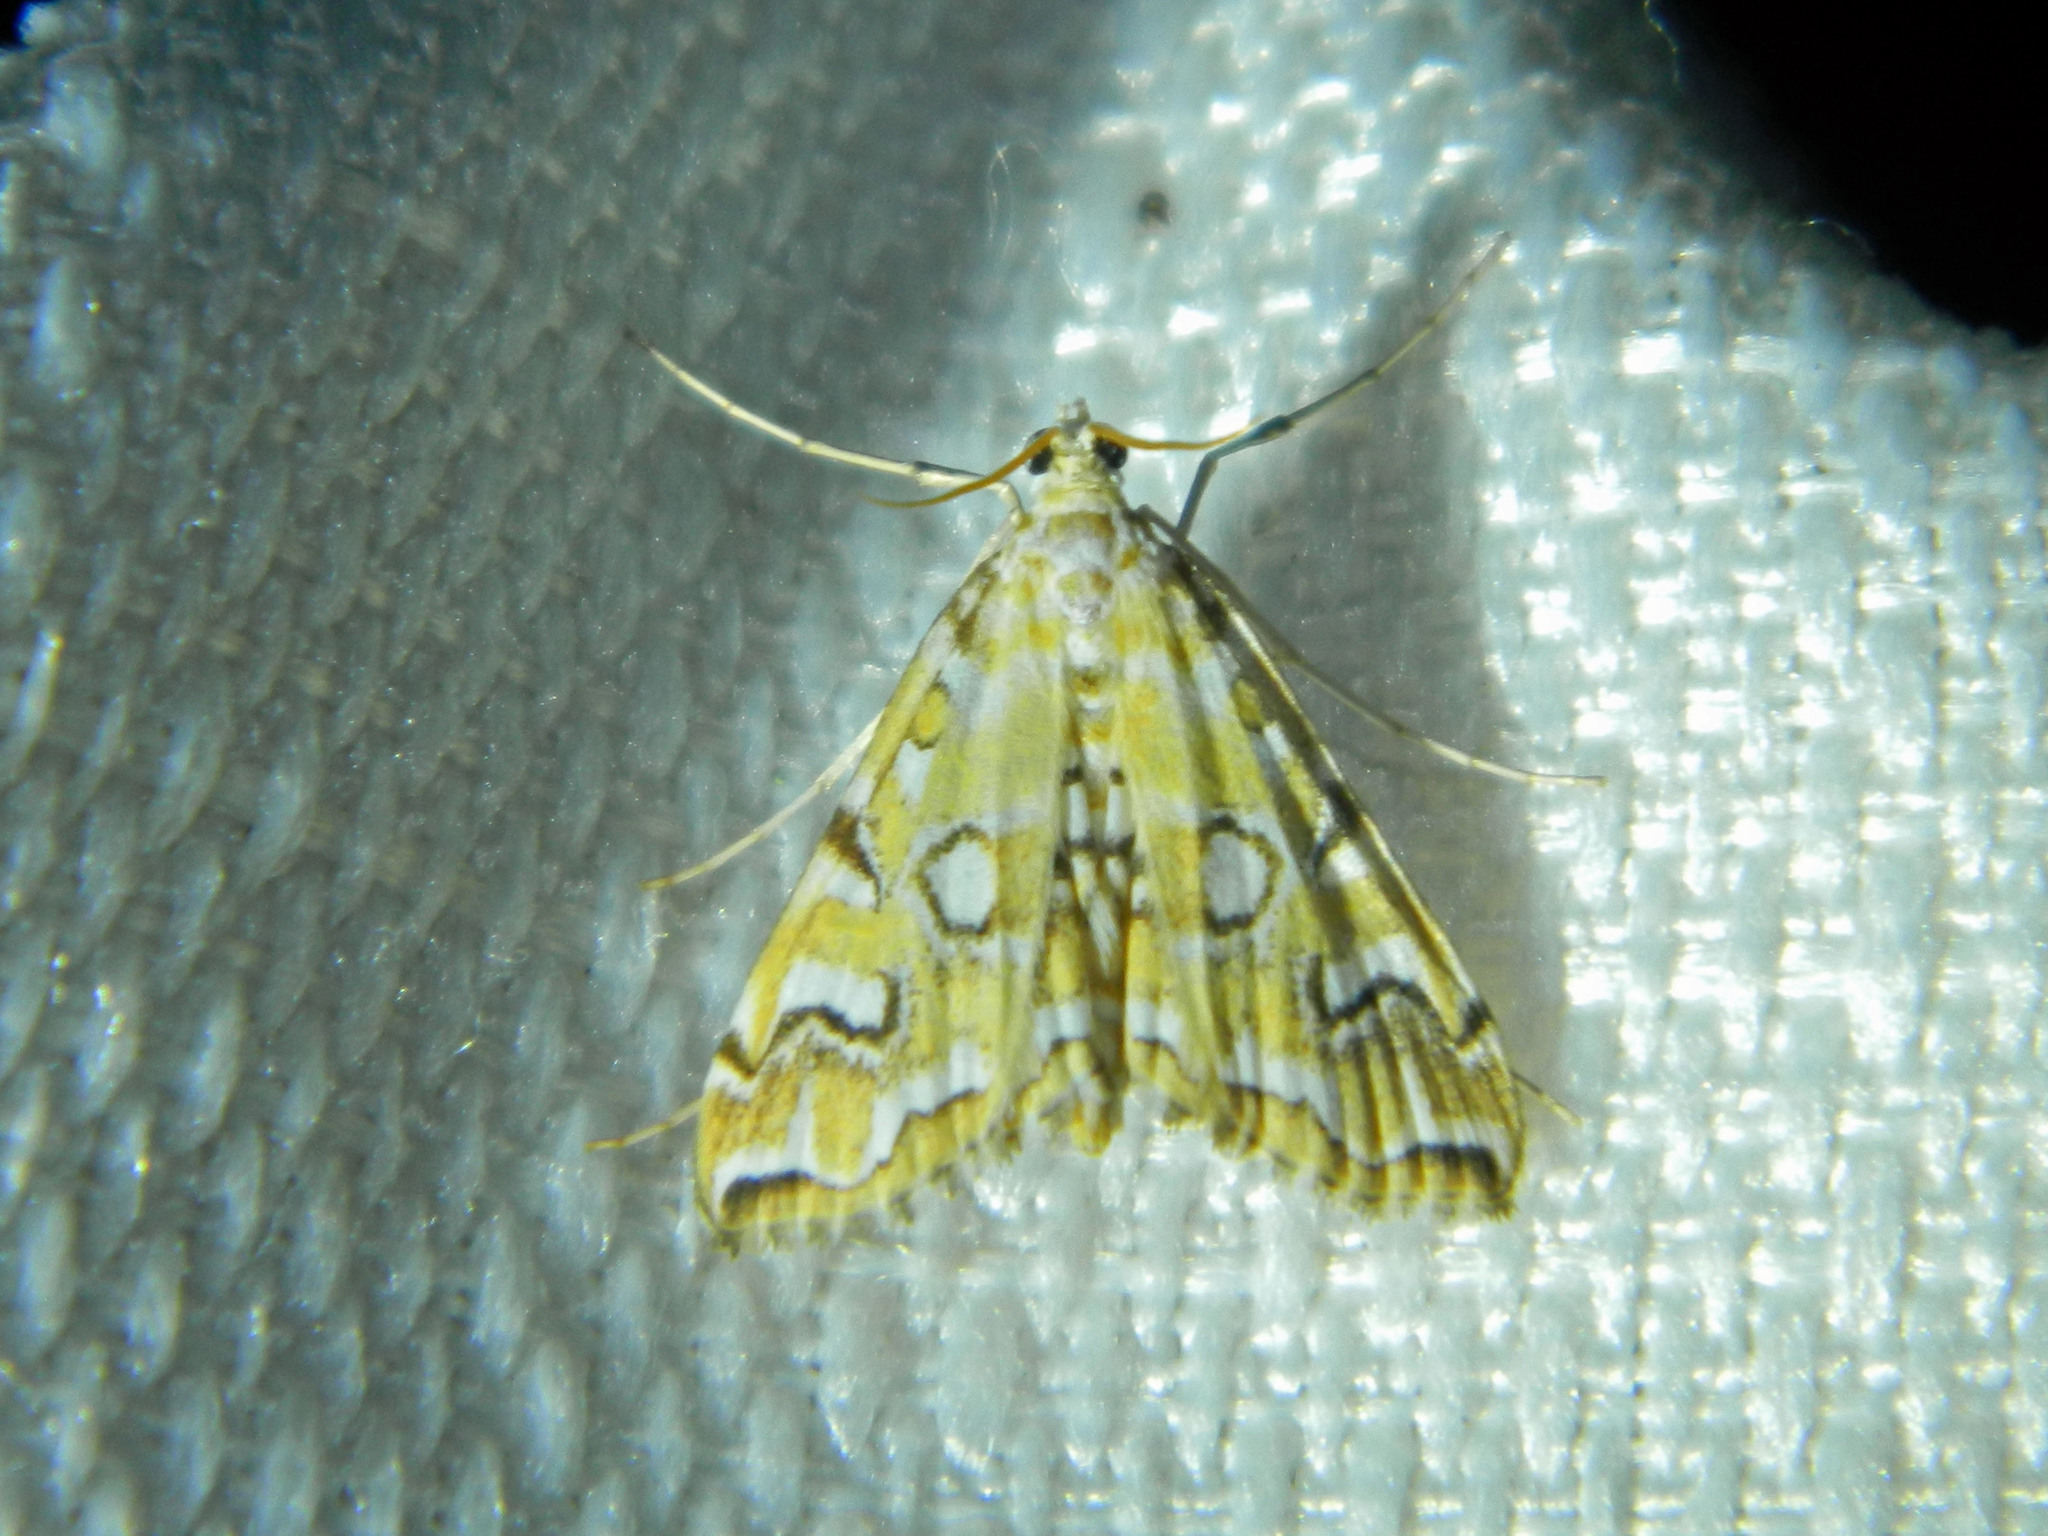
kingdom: Animalia
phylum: Arthropoda
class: Insecta
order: Lepidoptera
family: Crambidae
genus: Elophila
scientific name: Elophila icciusalis
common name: Pondside pyralid moth
